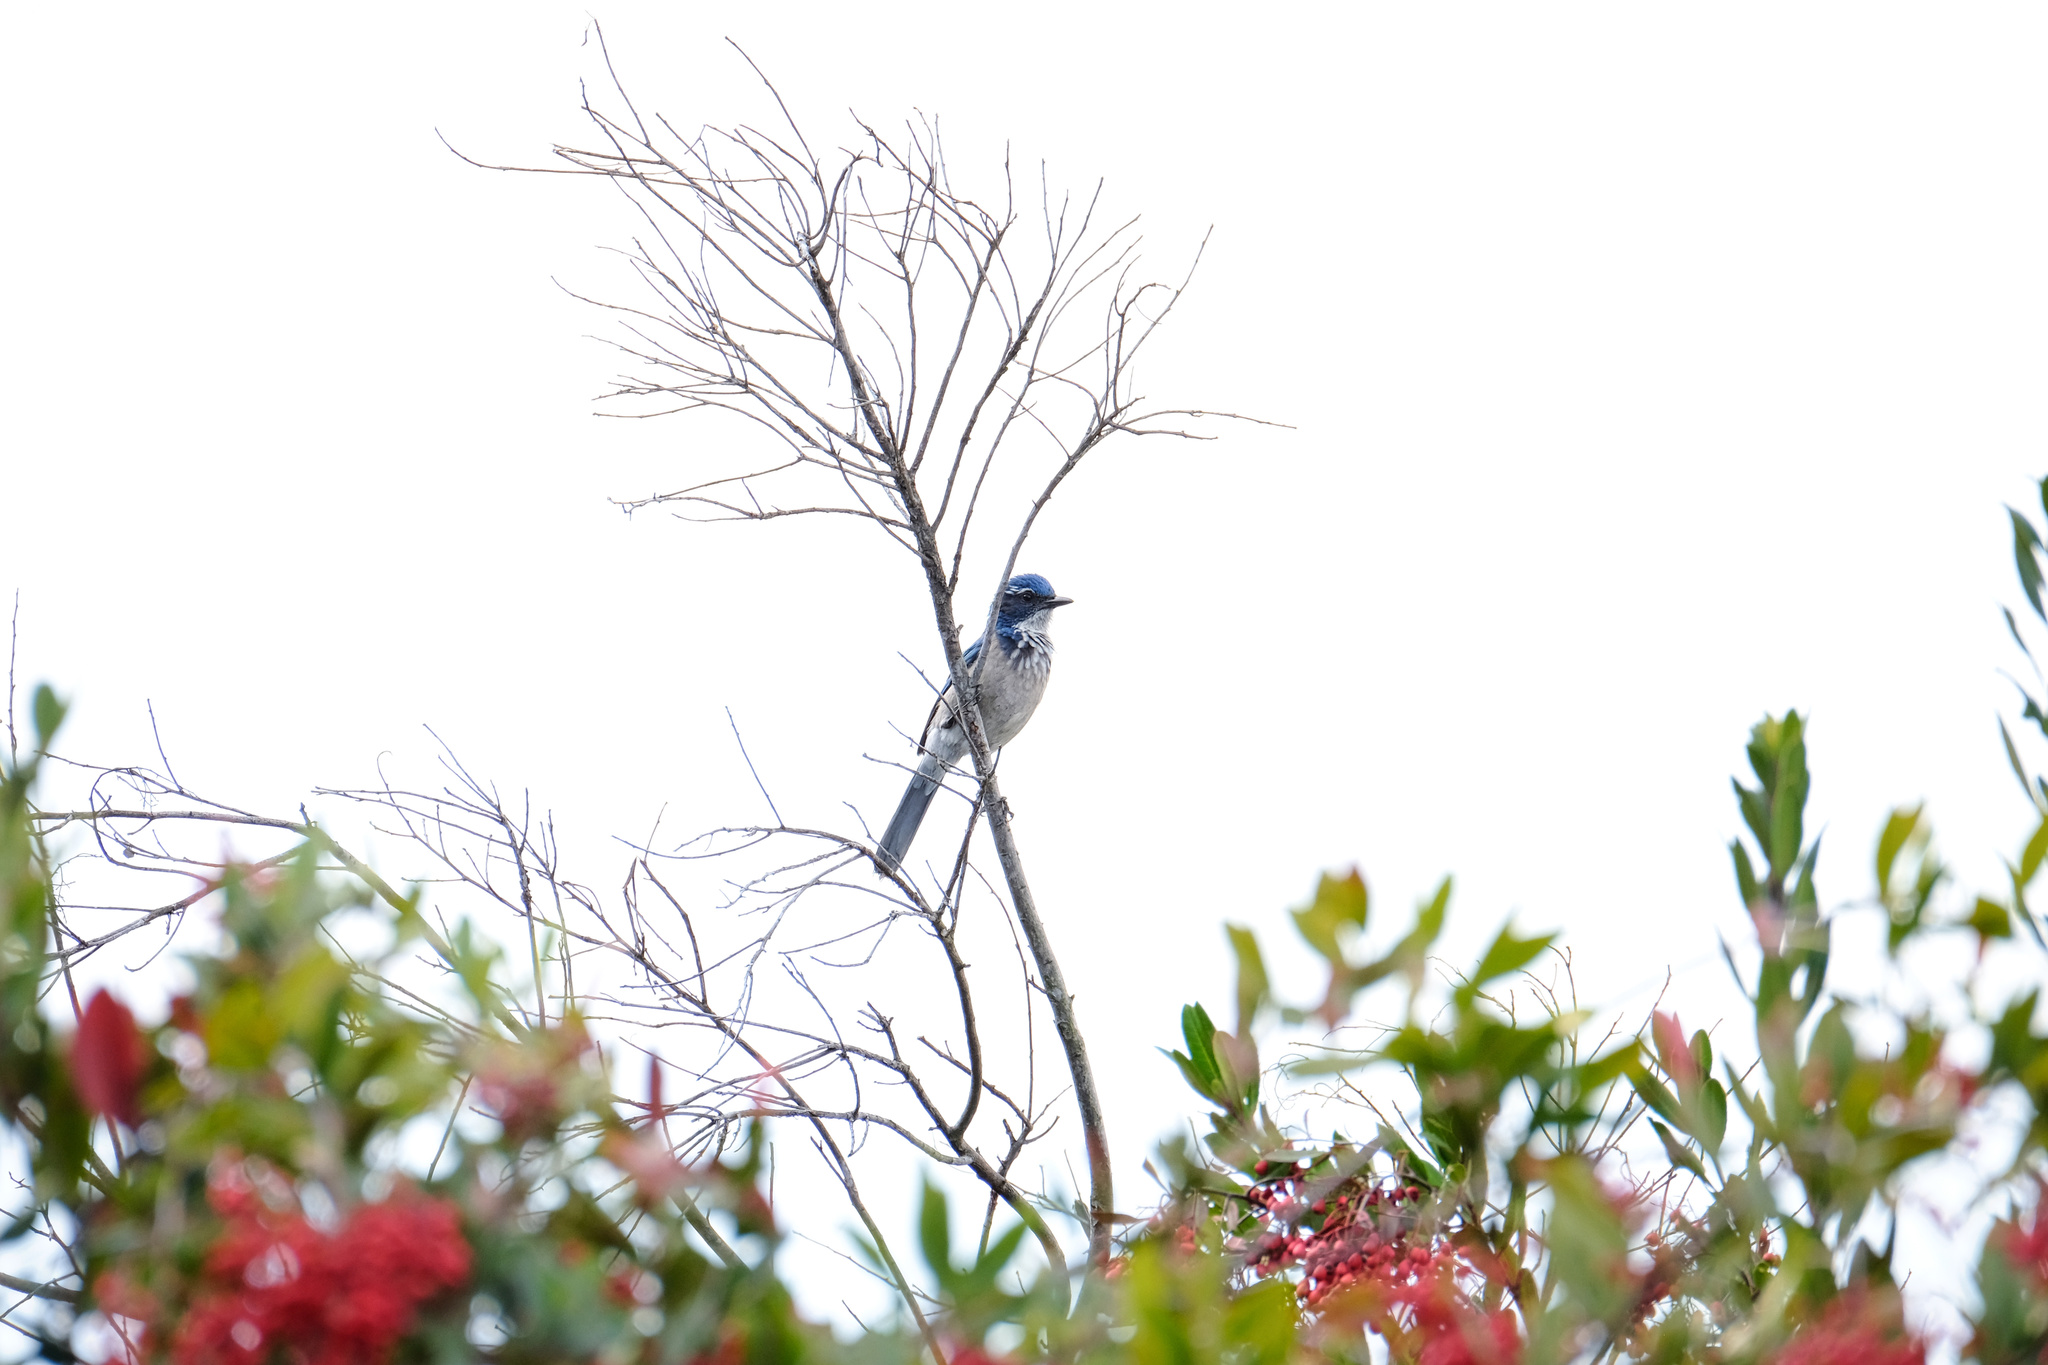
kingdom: Animalia
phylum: Chordata
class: Aves
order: Passeriformes
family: Corvidae
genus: Aphelocoma
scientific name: Aphelocoma californica
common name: California scrub-jay
